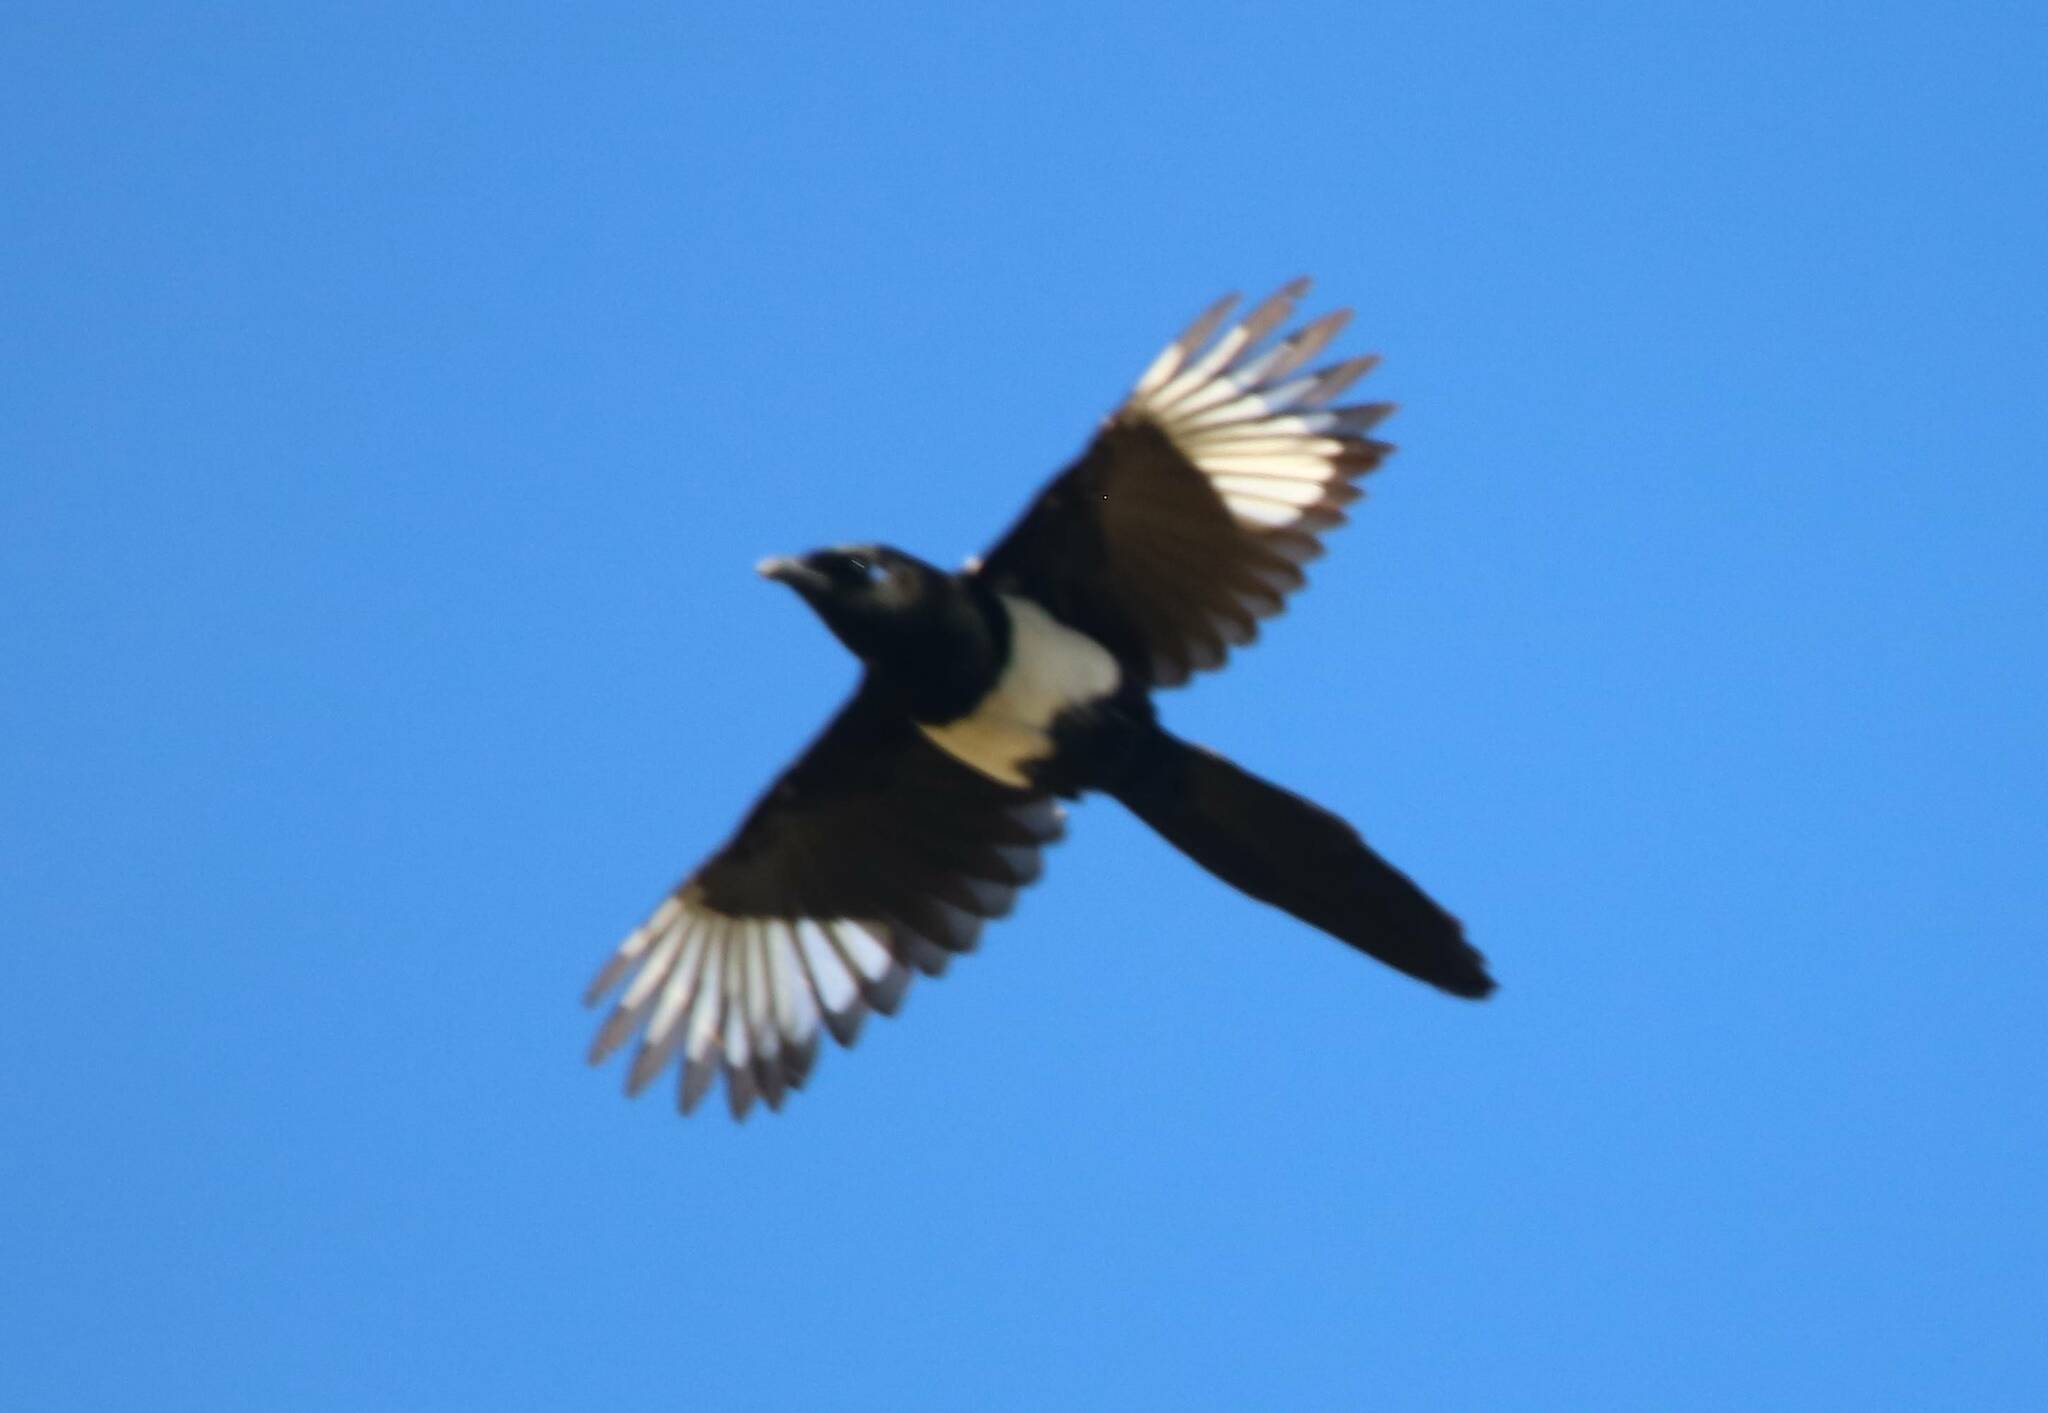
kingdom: Animalia
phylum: Chordata
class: Aves
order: Passeriformes
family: Corvidae
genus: Pica
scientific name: Pica mauritanica
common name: Maghreb magpie
